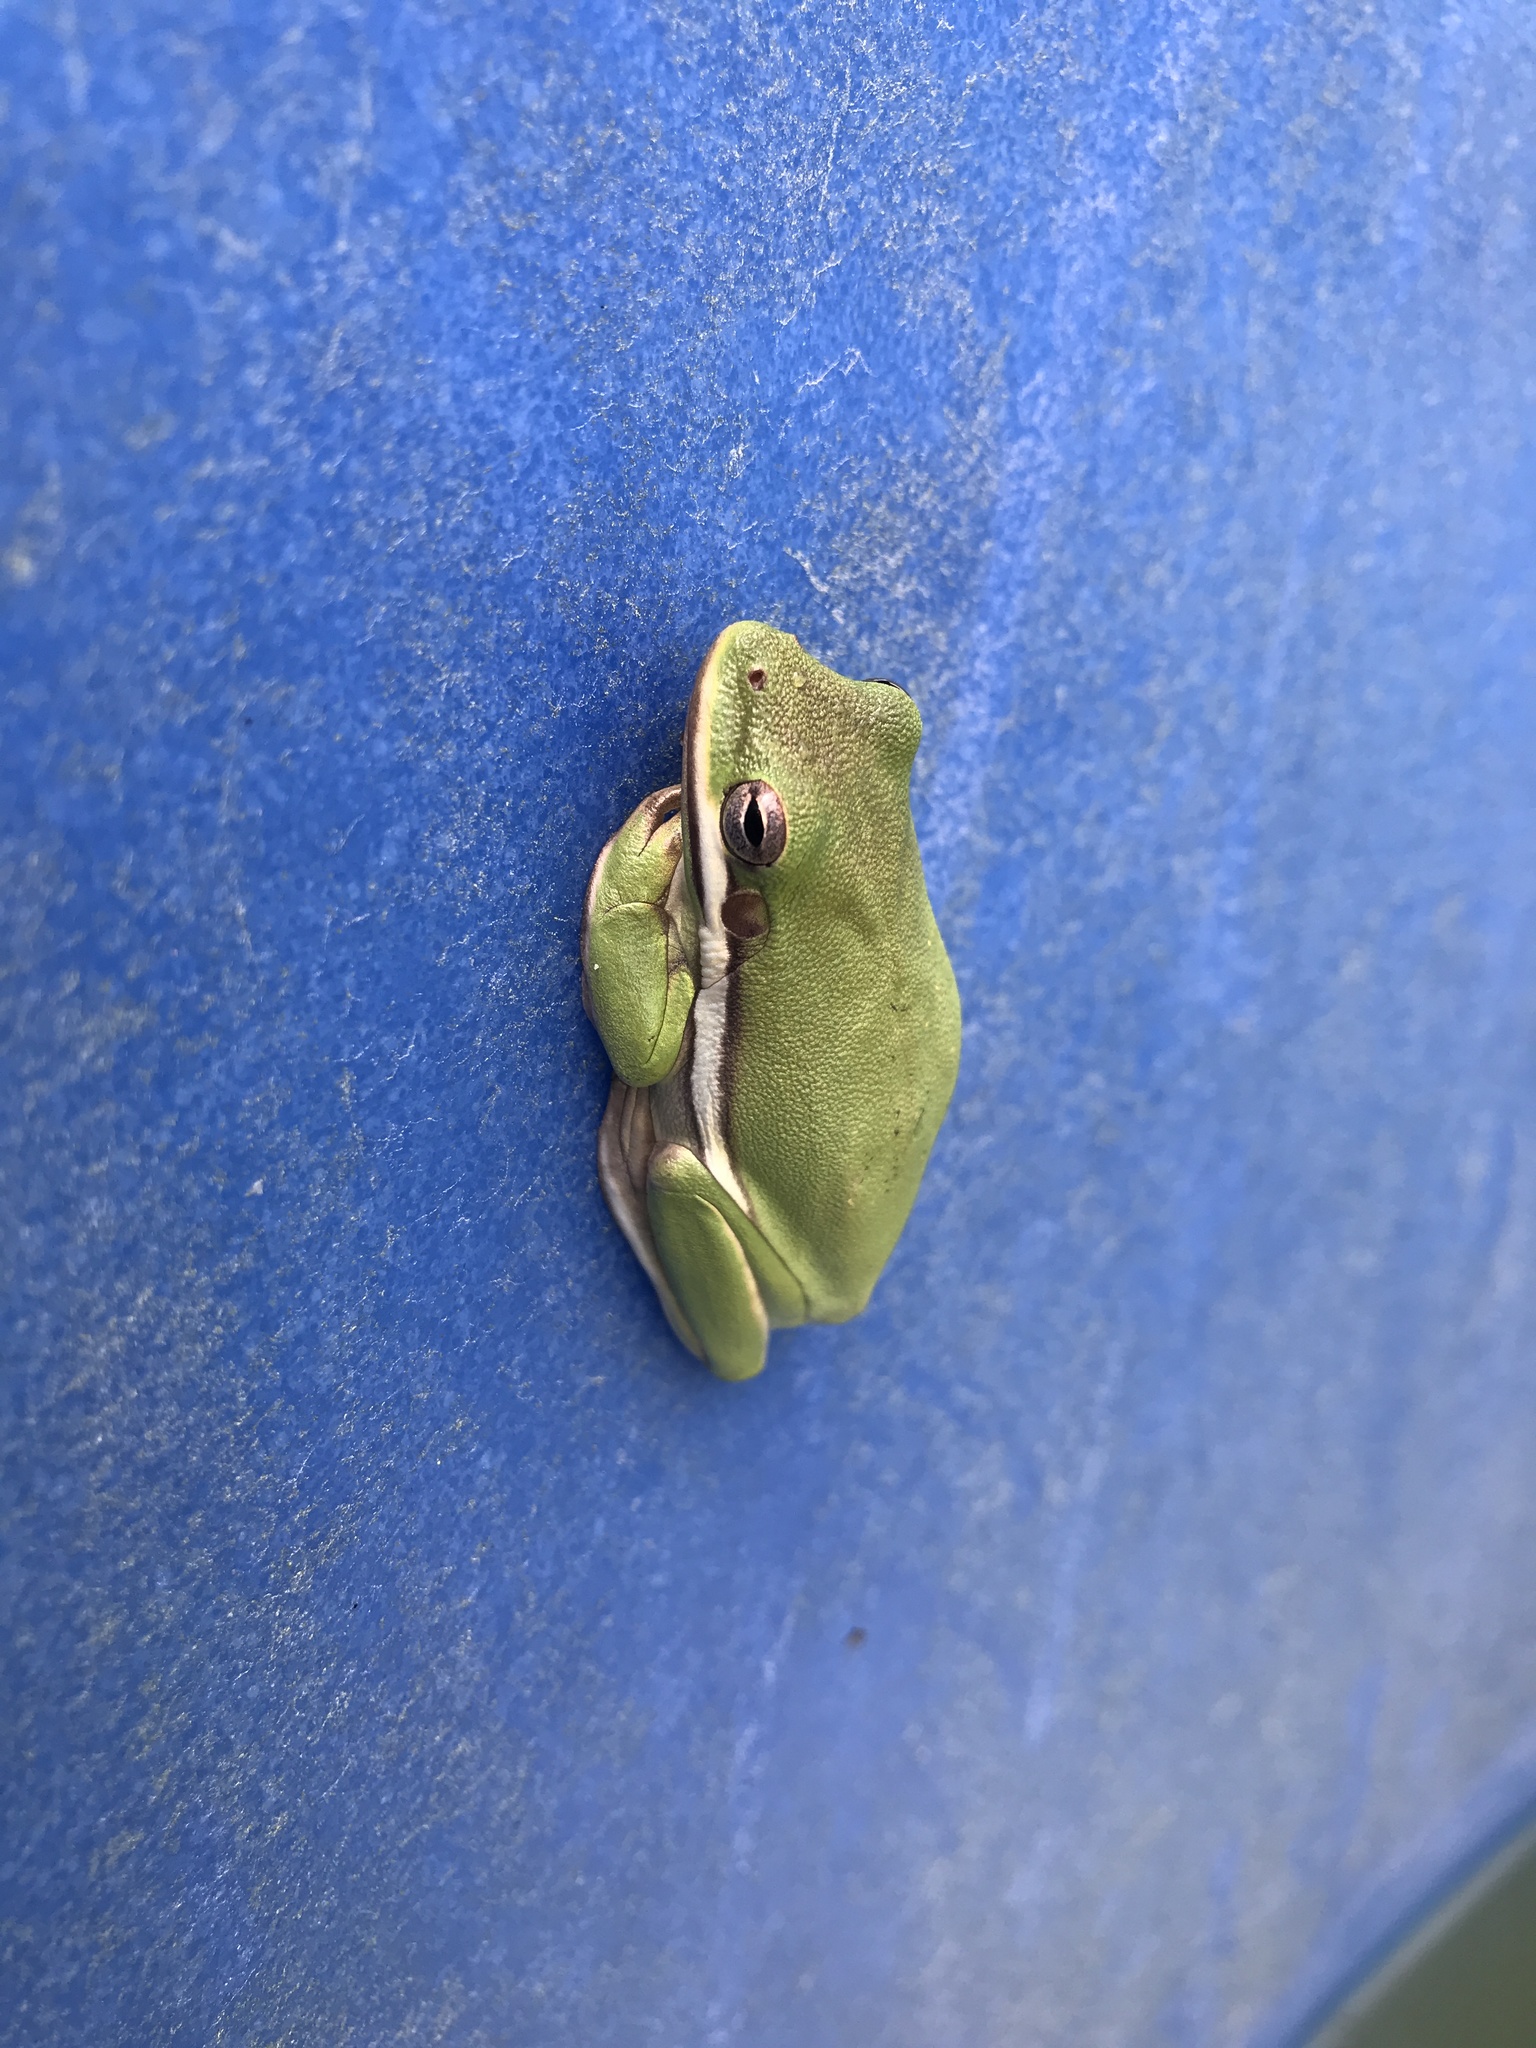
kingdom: Animalia
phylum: Chordata
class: Amphibia
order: Anura
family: Hylidae
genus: Dryophytes
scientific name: Dryophytes cinereus
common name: Green treefrog
